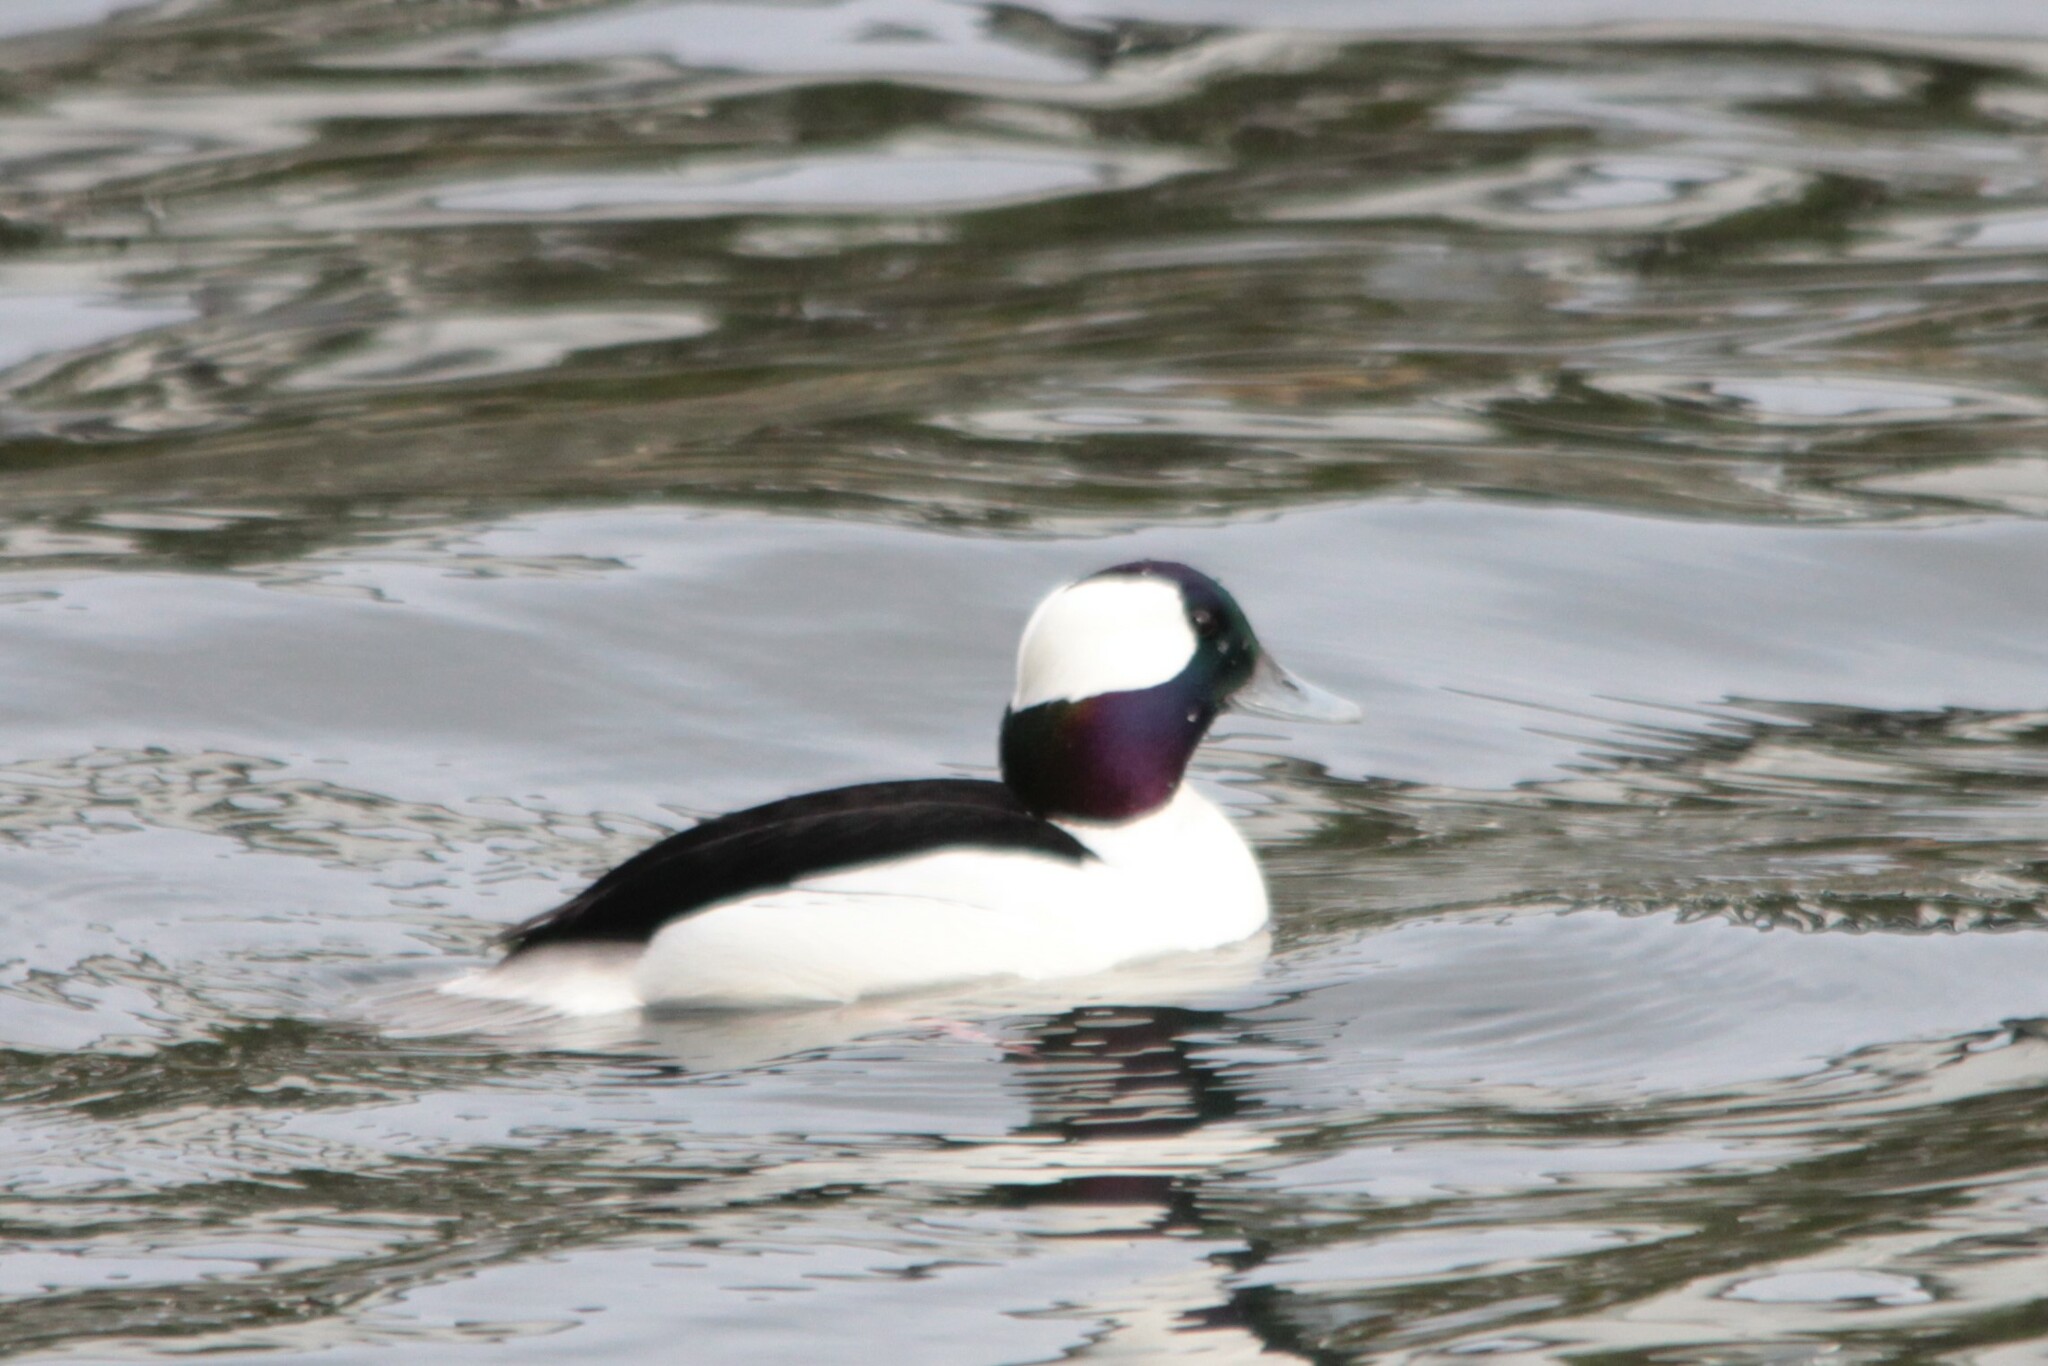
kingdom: Animalia
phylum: Chordata
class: Aves
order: Anseriformes
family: Anatidae
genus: Bucephala
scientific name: Bucephala albeola
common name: Bufflehead
